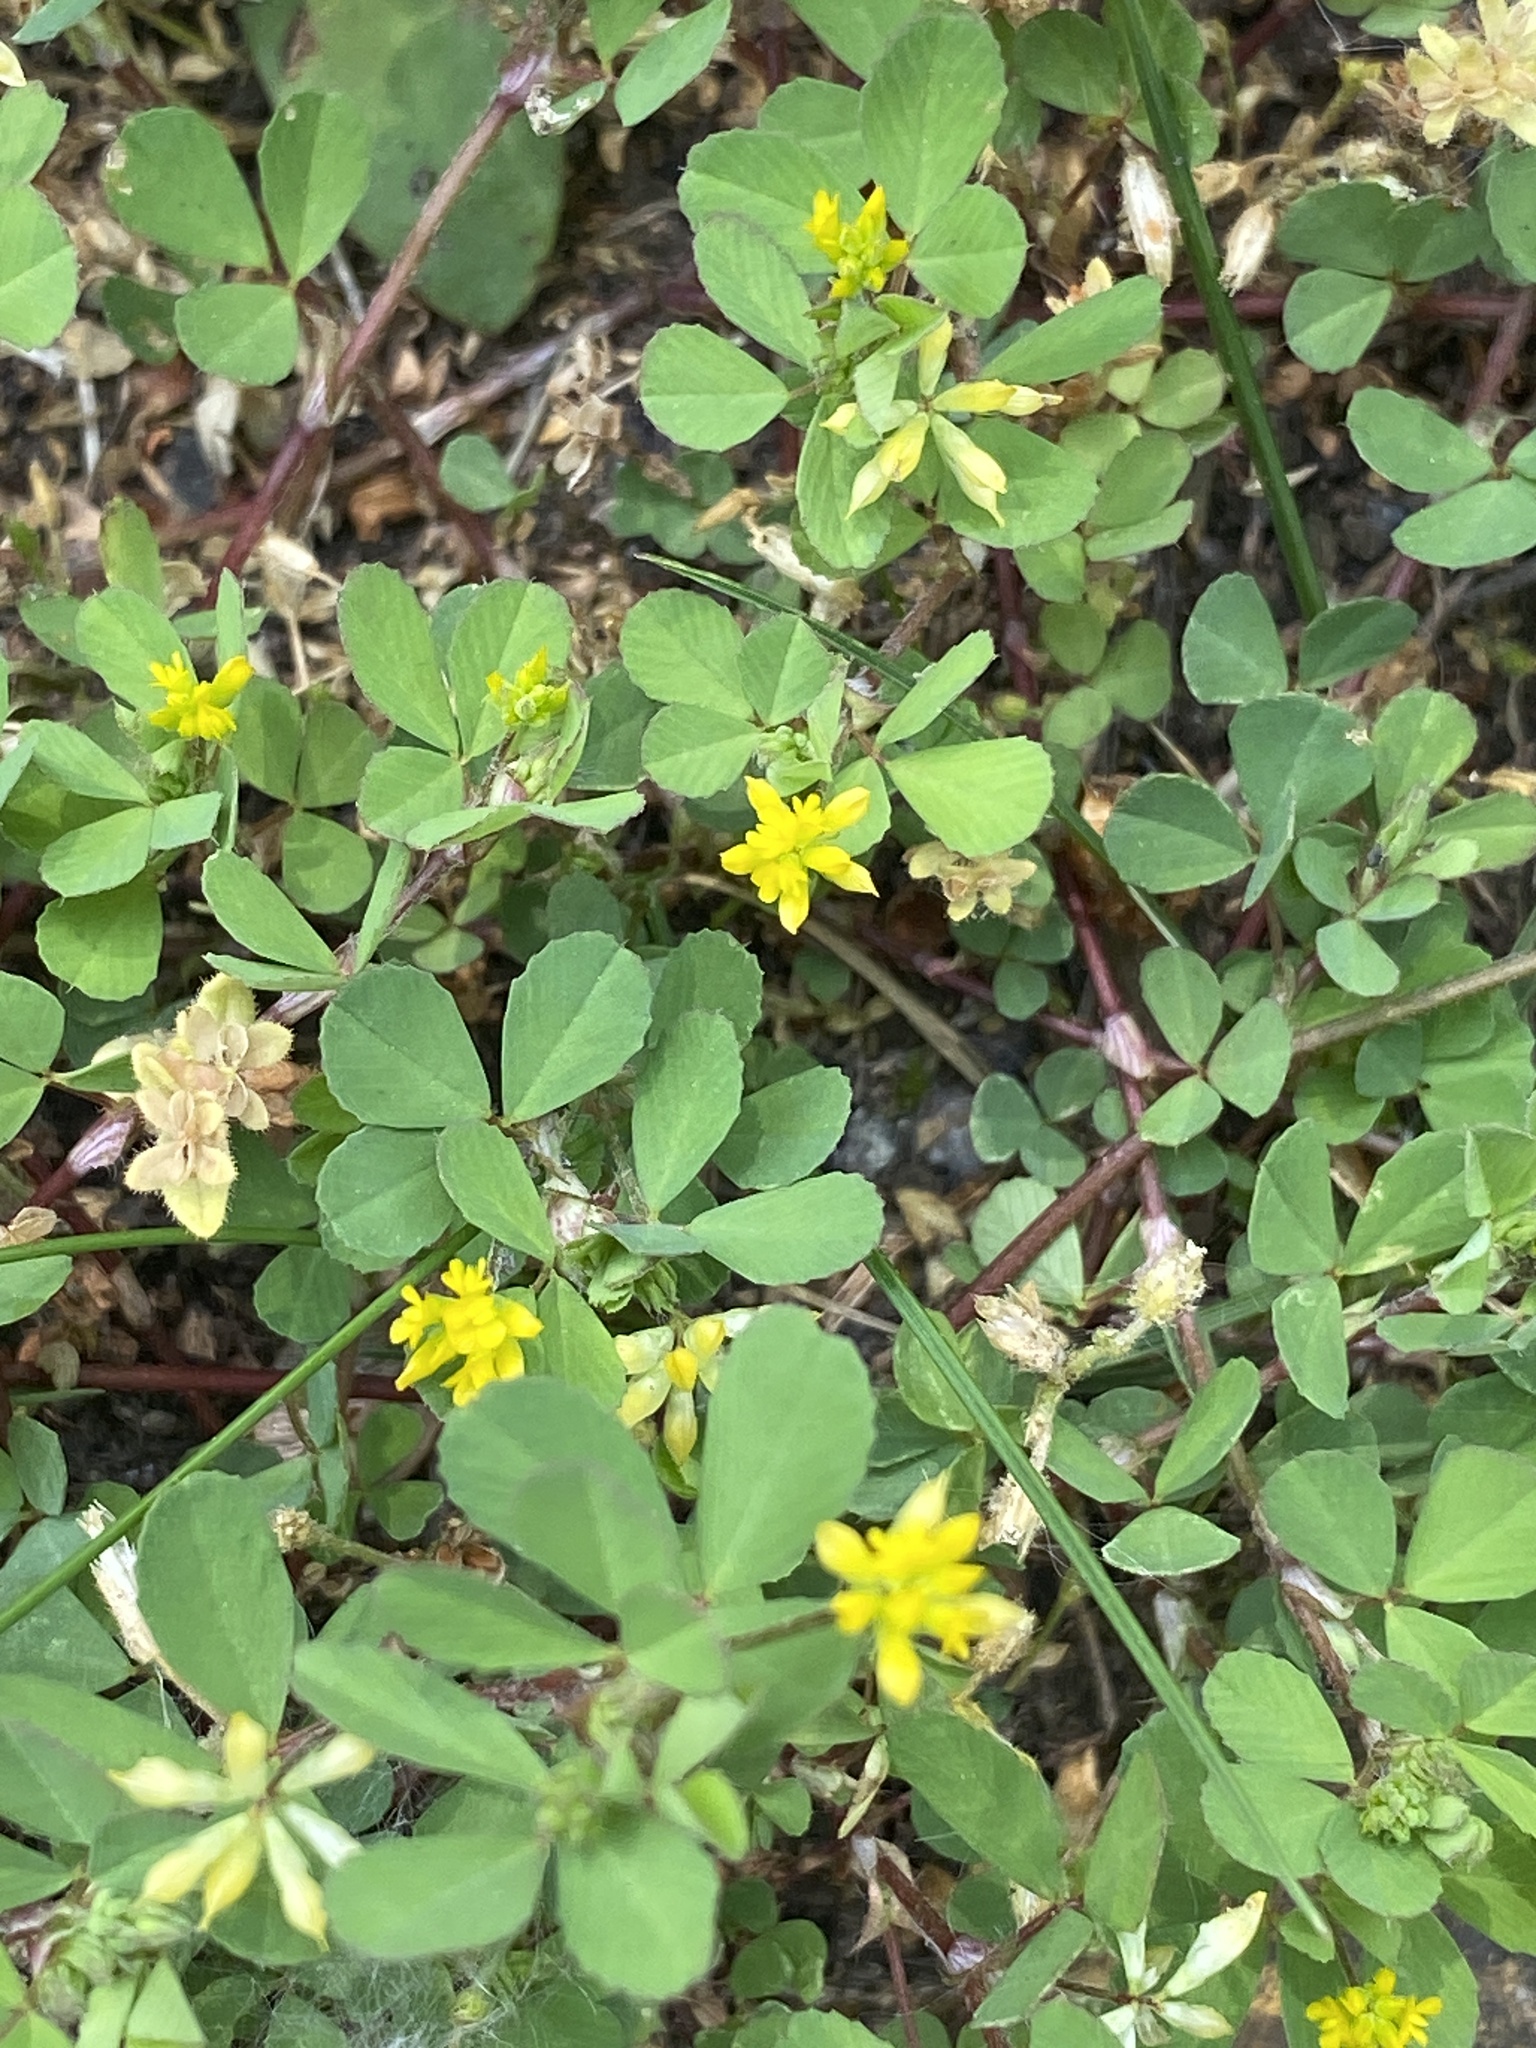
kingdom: Plantae
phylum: Tracheophyta
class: Magnoliopsida
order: Fabales
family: Fabaceae
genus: Trifolium
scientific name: Trifolium dubium
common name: Suckling clover
